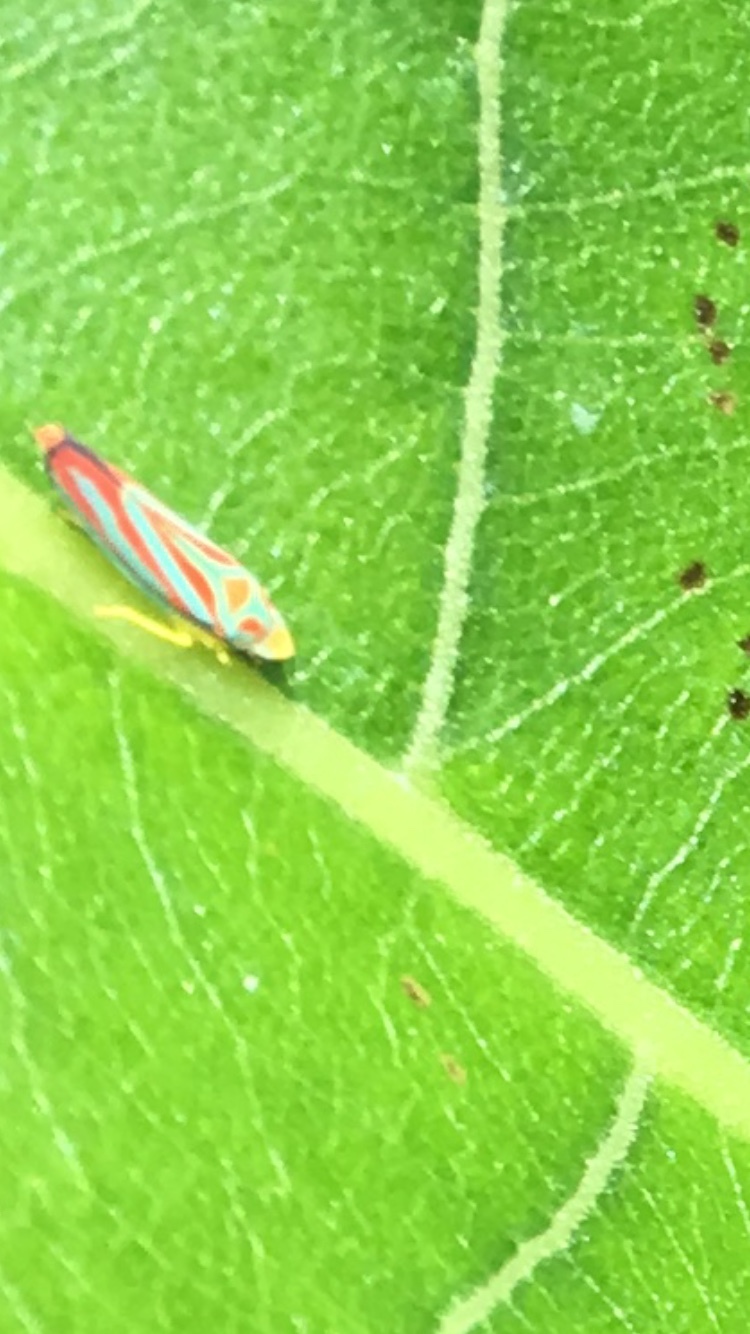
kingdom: Animalia
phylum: Arthropoda
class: Insecta
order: Hemiptera
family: Cicadellidae
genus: Graphocephala
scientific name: Graphocephala coccinea
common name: Candy-striped leafhopper
